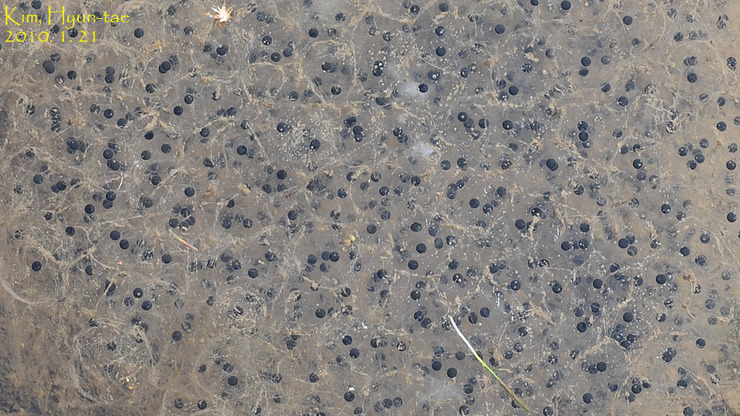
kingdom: Animalia
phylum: Chordata
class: Amphibia
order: Anura
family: Ranidae
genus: Rana
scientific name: Rana uenoi
